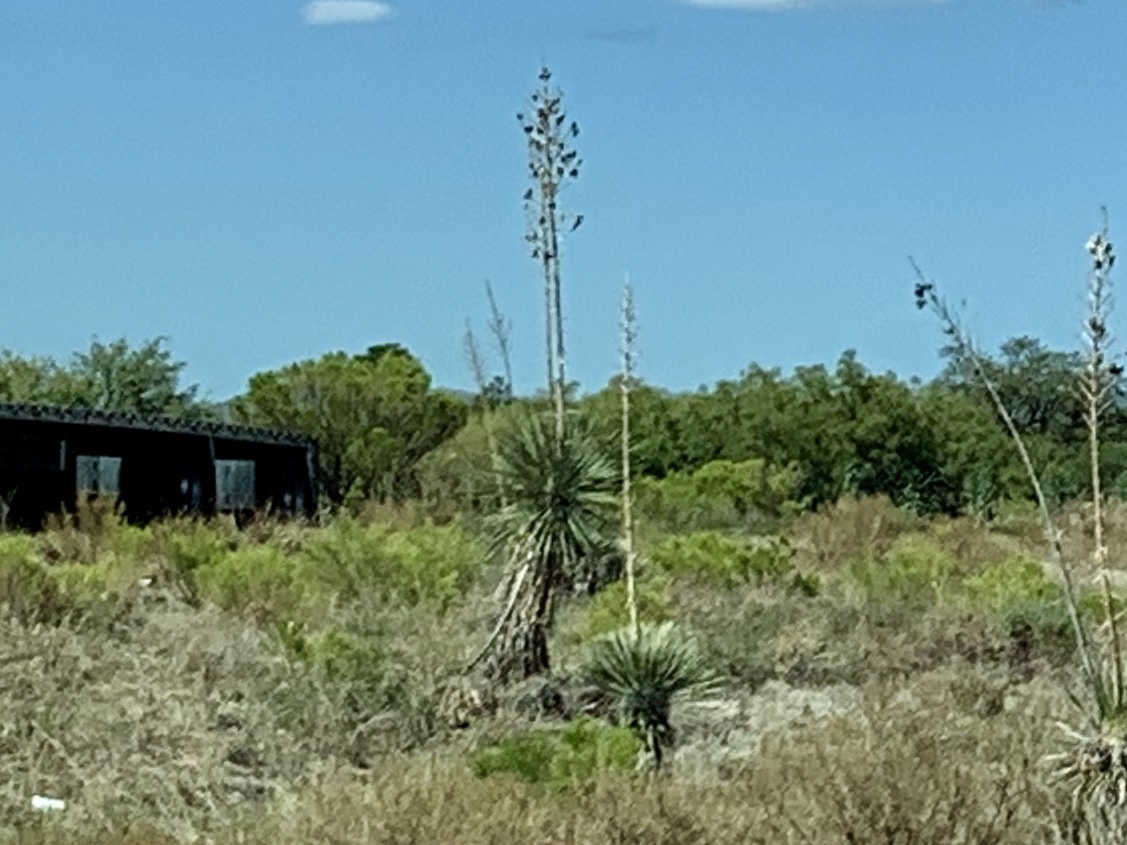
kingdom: Plantae
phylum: Tracheophyta
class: Liliopsida
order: Asparagales
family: Asparagaceae
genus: Yucca
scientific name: Yucca elata
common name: Palmella
